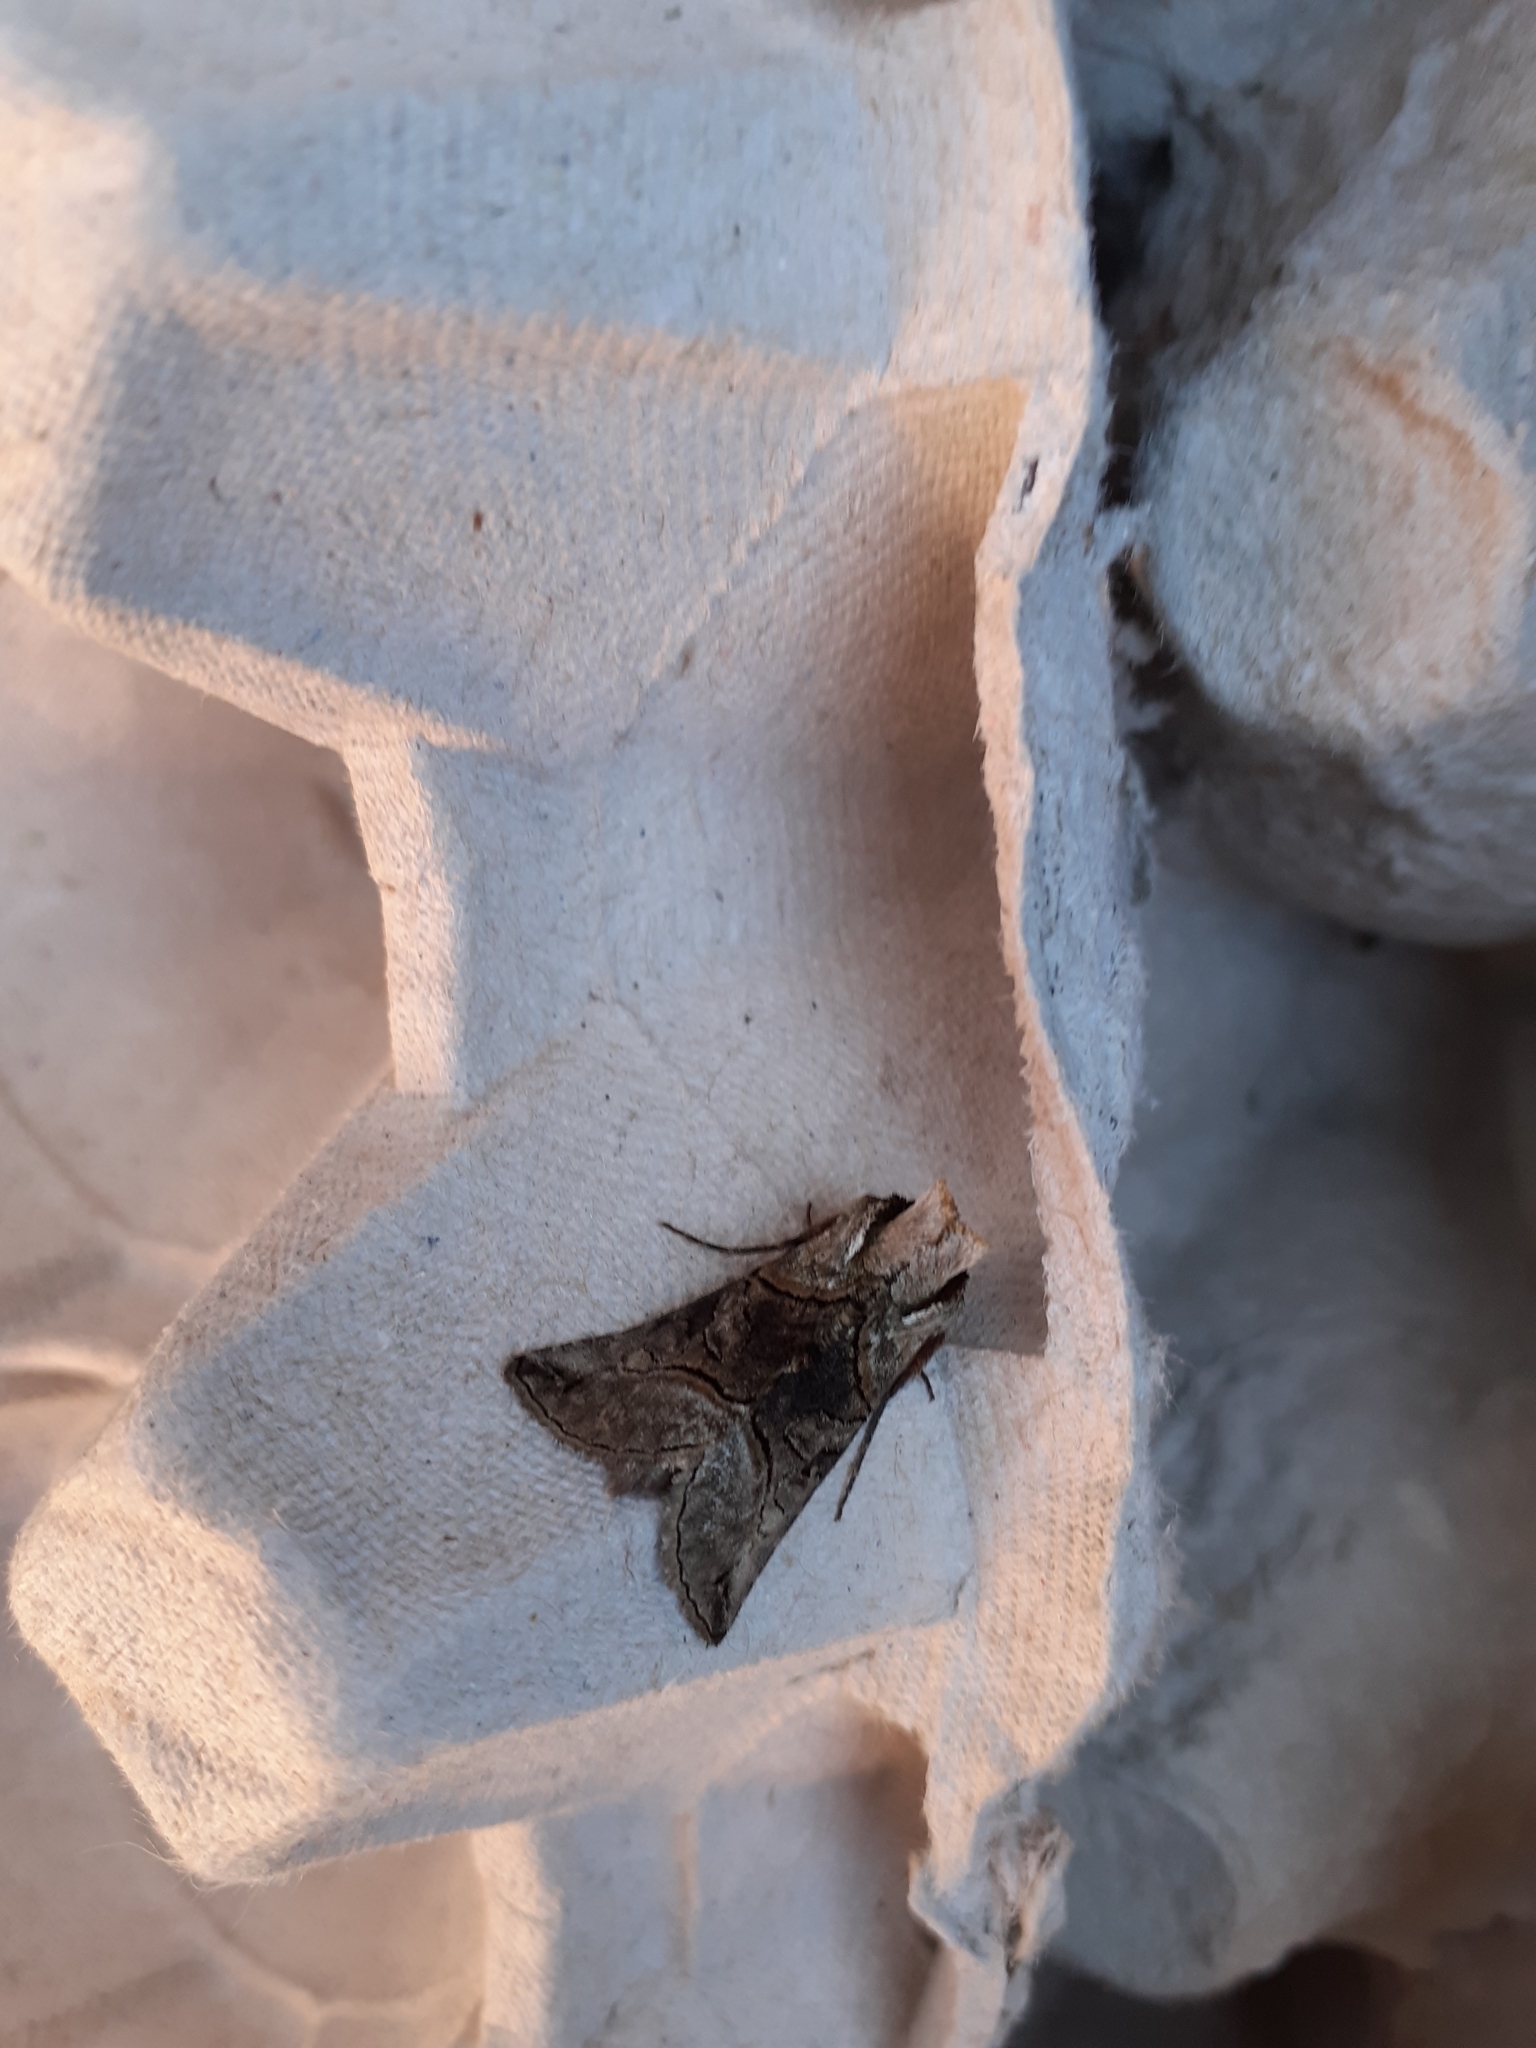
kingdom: Animalia
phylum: Arthropoda
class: Insecta
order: Lepidoptera
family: Noctuidae
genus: Abrostola
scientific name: Abrostola tripartita
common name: Spectacle
